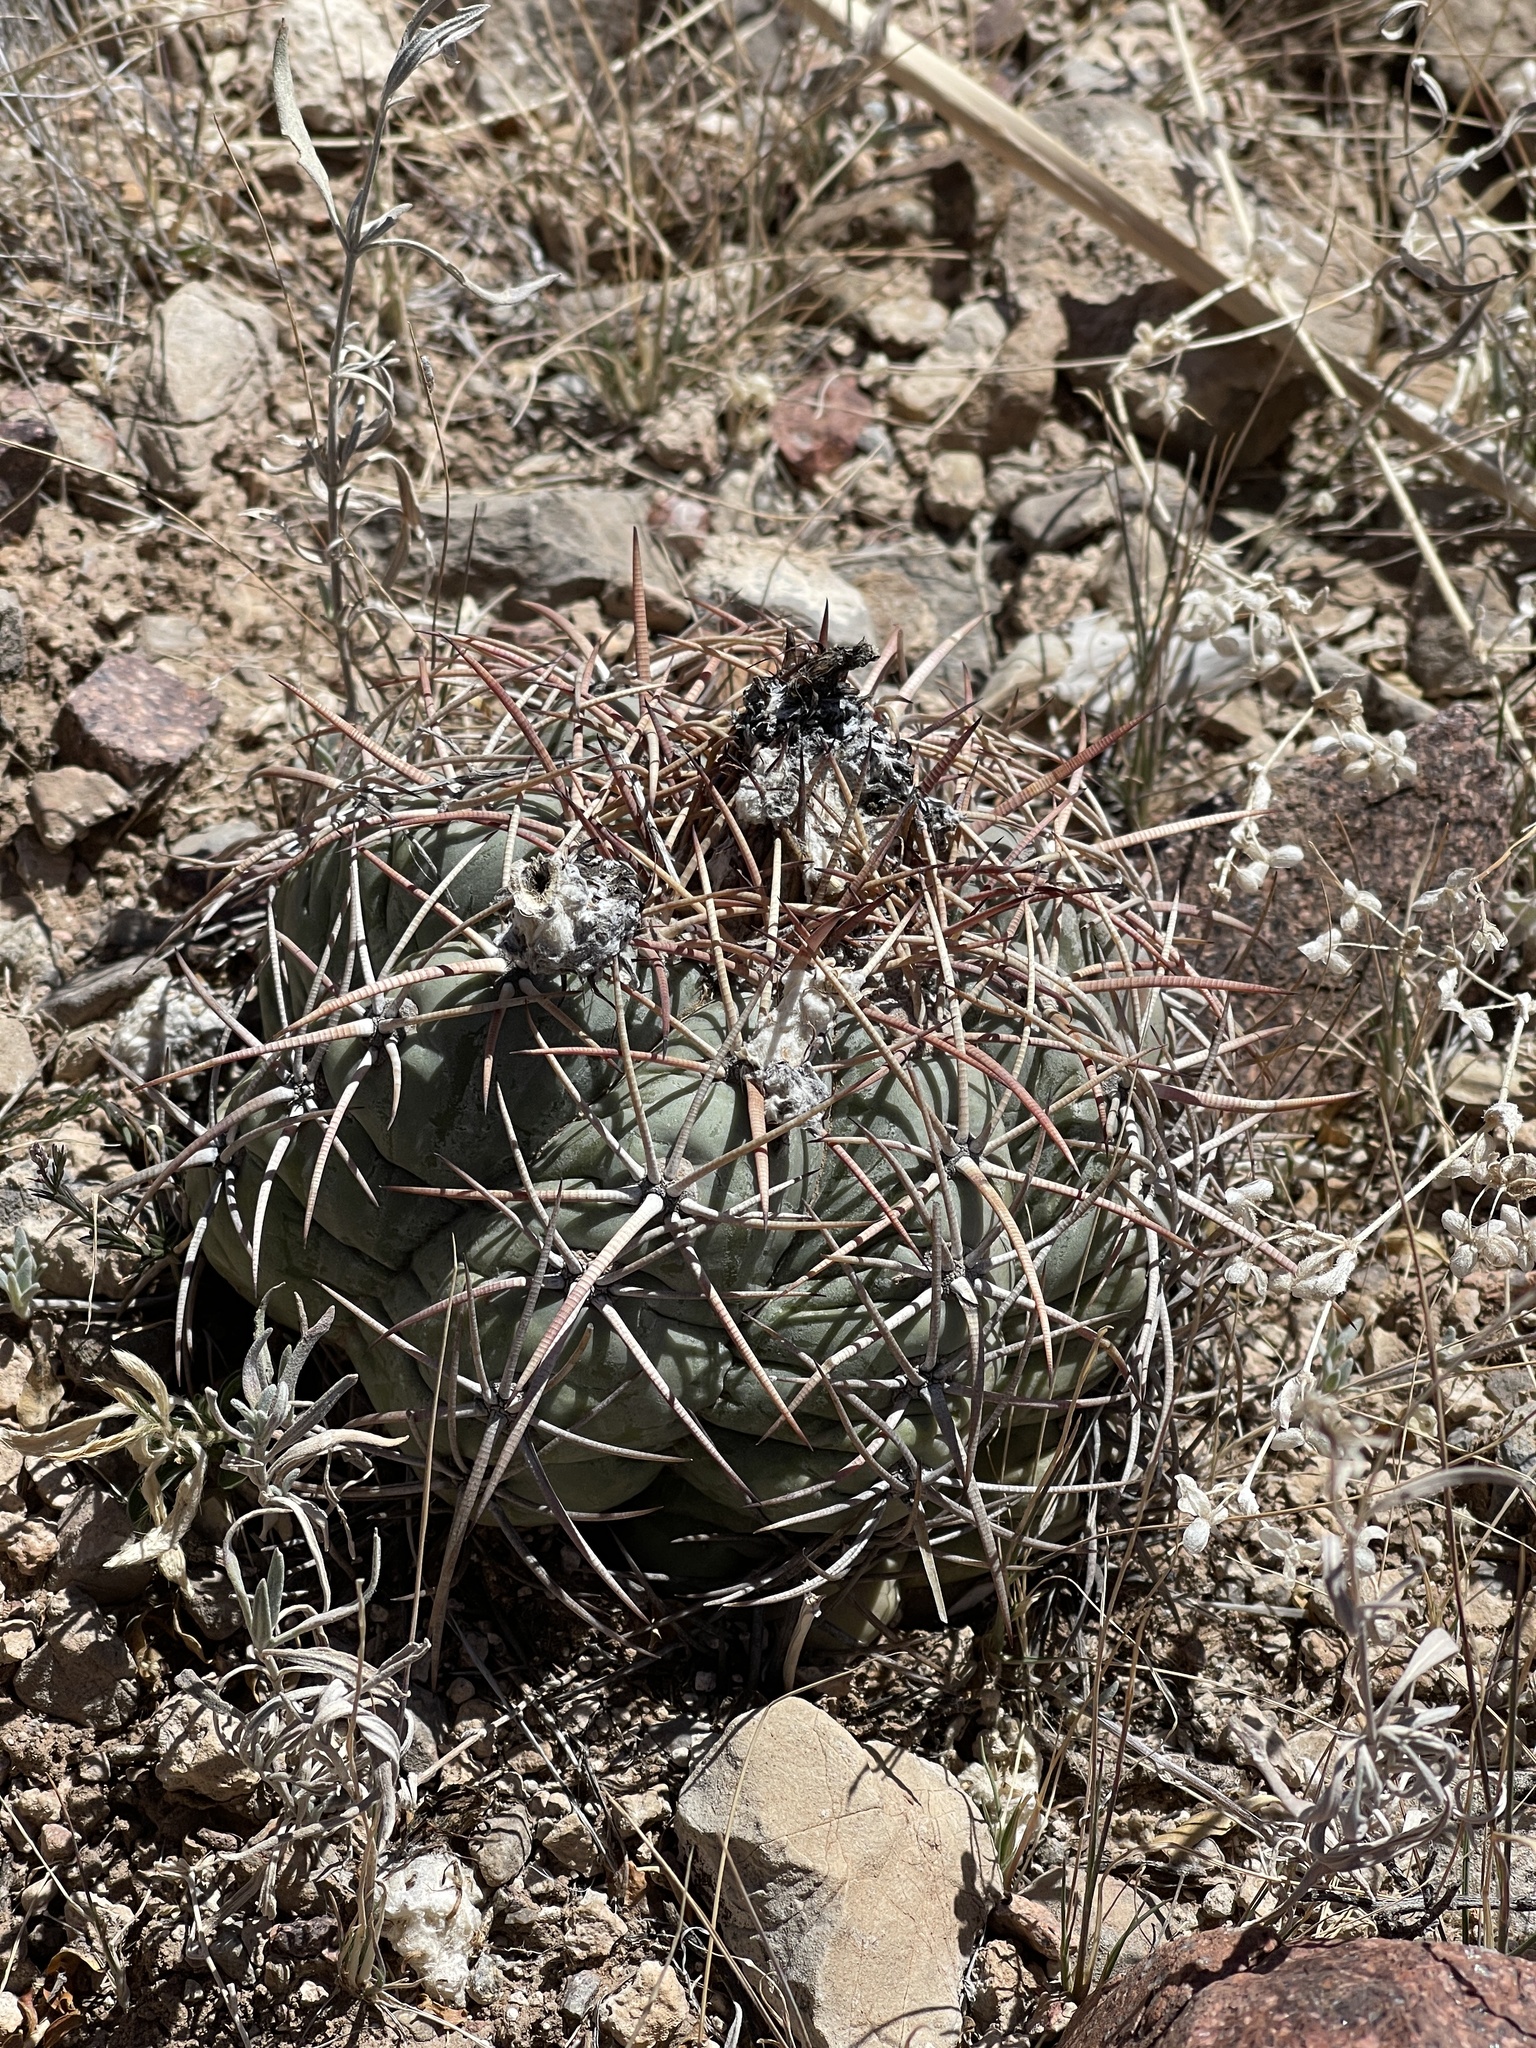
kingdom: Plantae
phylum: Tracheophyta
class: Magnoliopsida
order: Caryophyllales
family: Cactaceae
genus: Echinocactus
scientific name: Echinocactus horizonthalonius
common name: Devilshead
